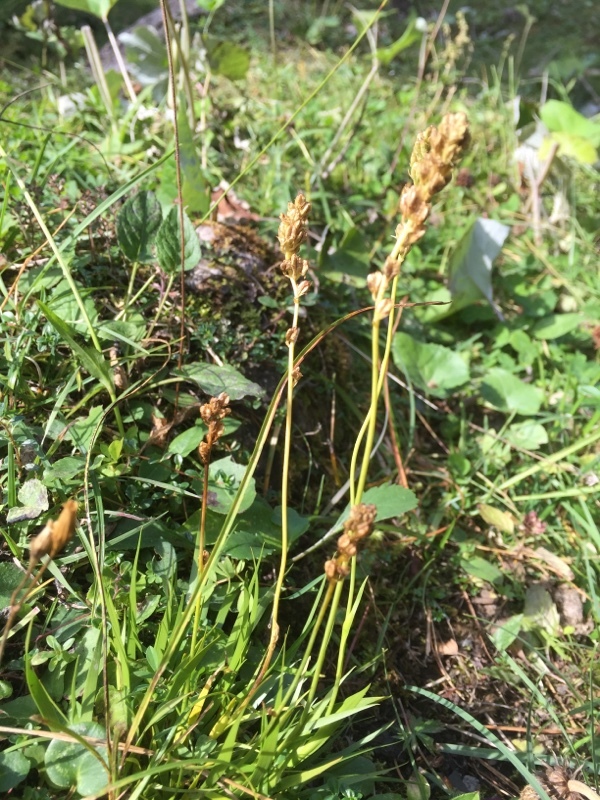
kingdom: Plantae
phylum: Tracheophyta
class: Liliopsida
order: Alismatales
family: Tofieldiaceae
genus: Tofieldia
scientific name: Tofieldia calyculata
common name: German-asphodel
